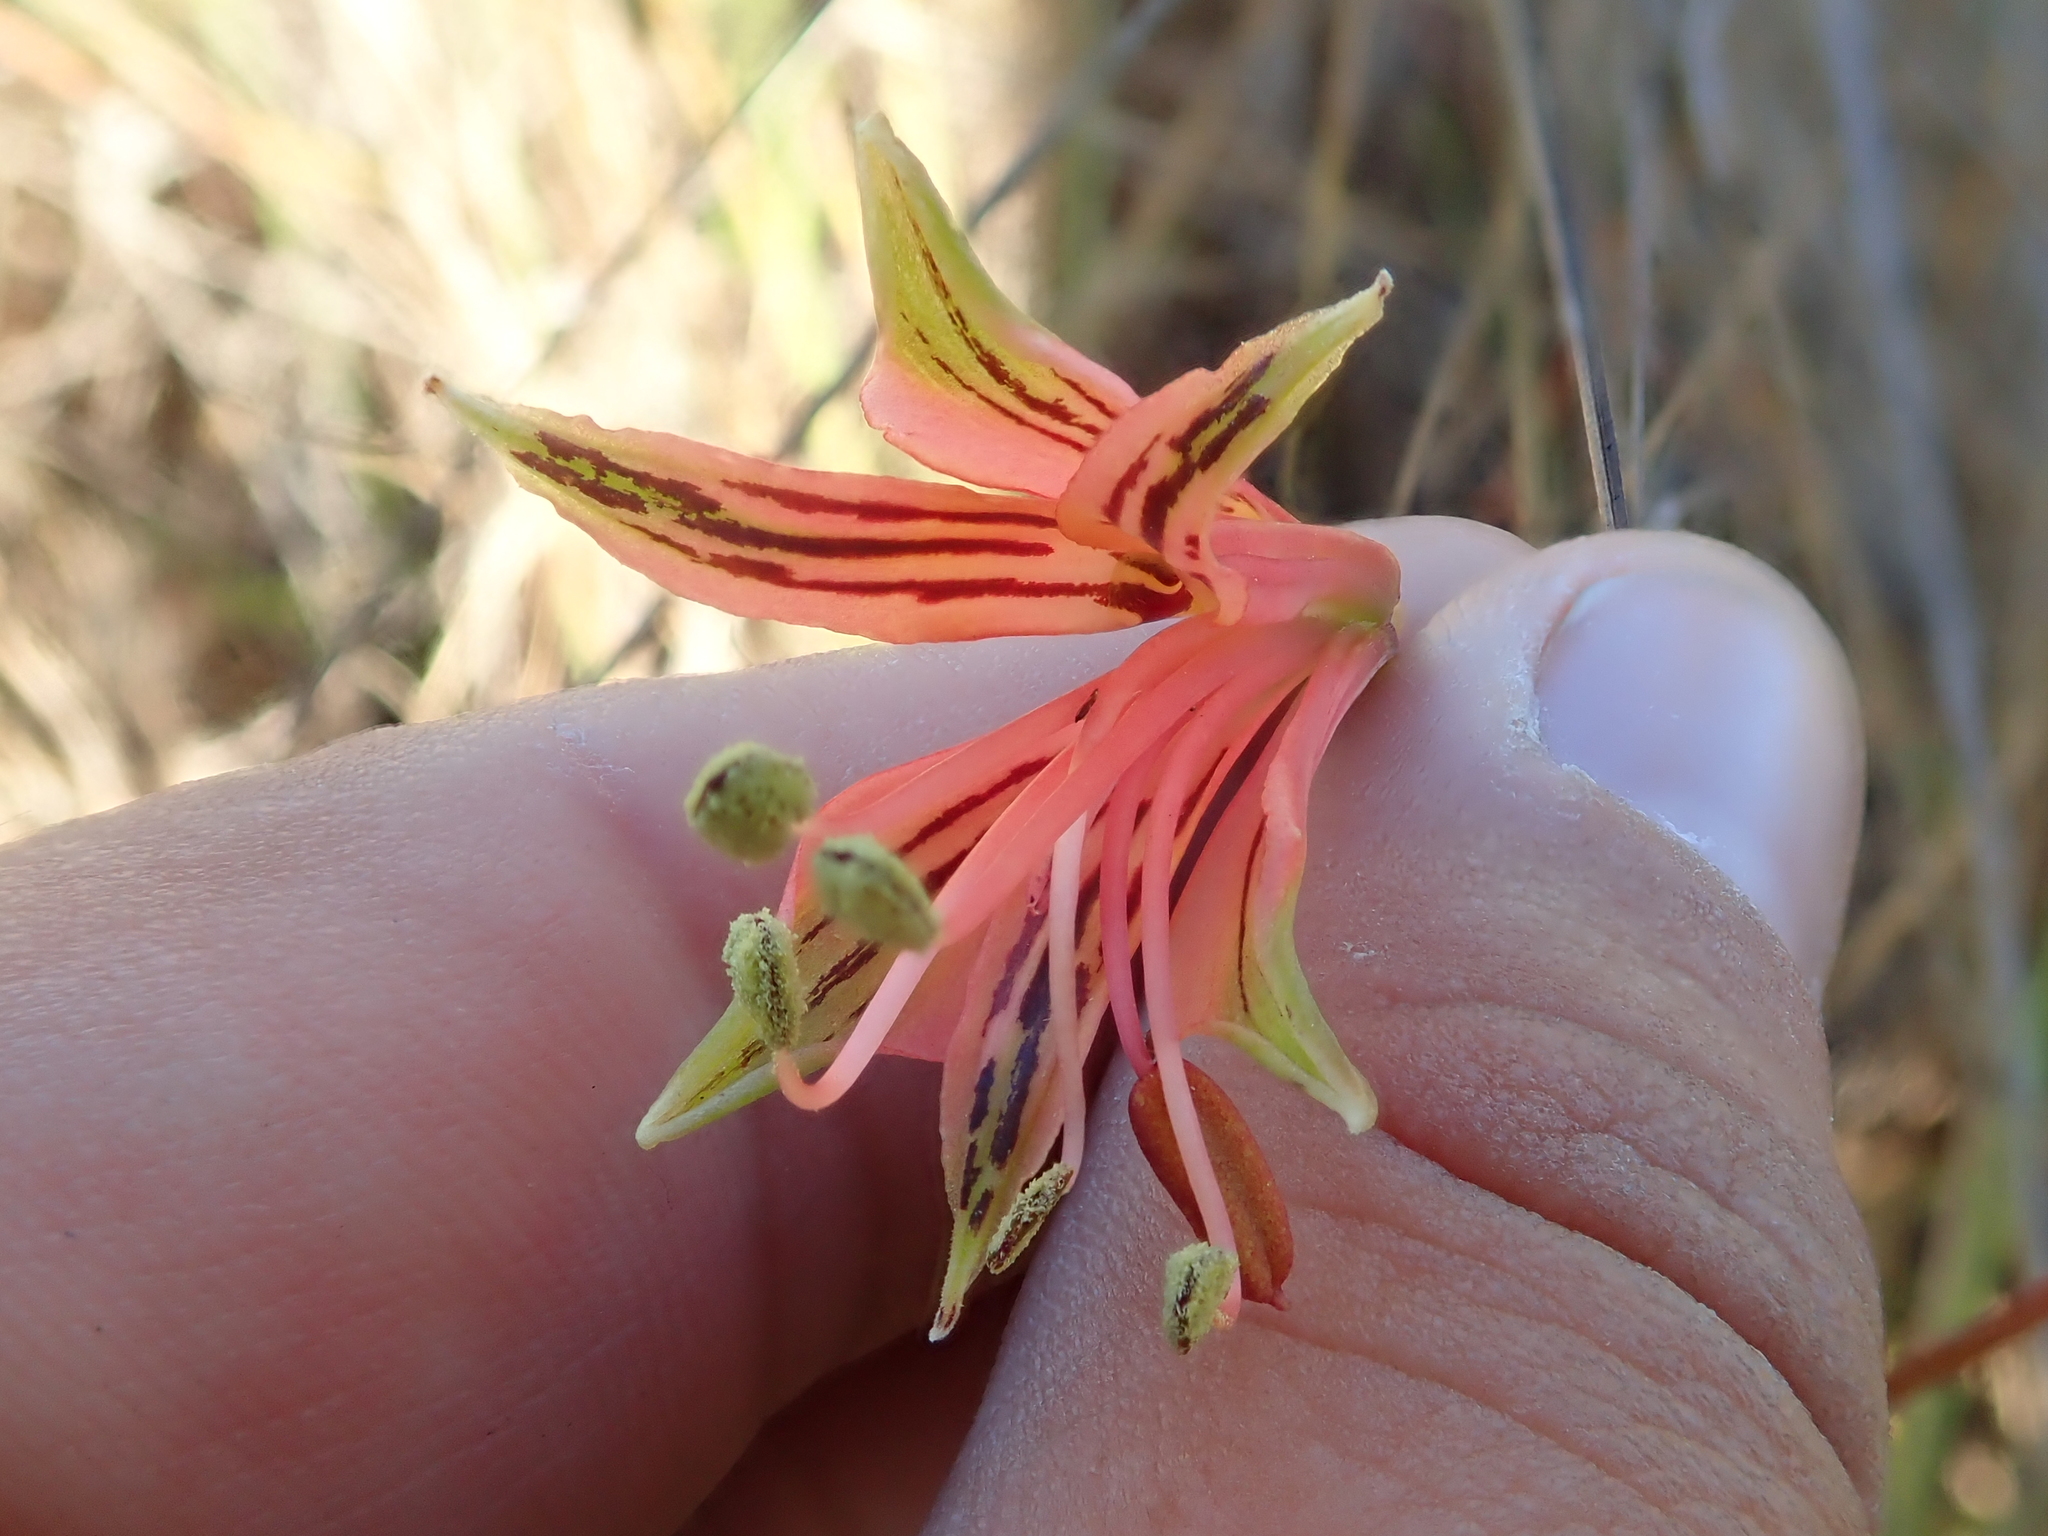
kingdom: Plantae
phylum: Tracheophyta
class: Liliopsida
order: Liliales
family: Alstroemeriaceae
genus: Alstroemeria
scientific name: Alstroemeria stenopetala
